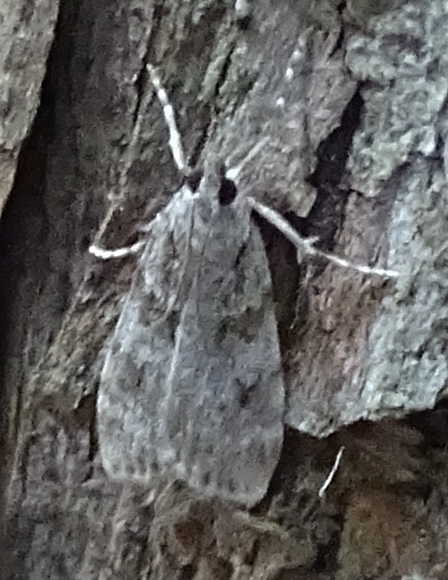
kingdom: Animalia
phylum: Arthropoda
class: Insecta
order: Lepidoptera
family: Crambidae
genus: Scoparia
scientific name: Scoparia
